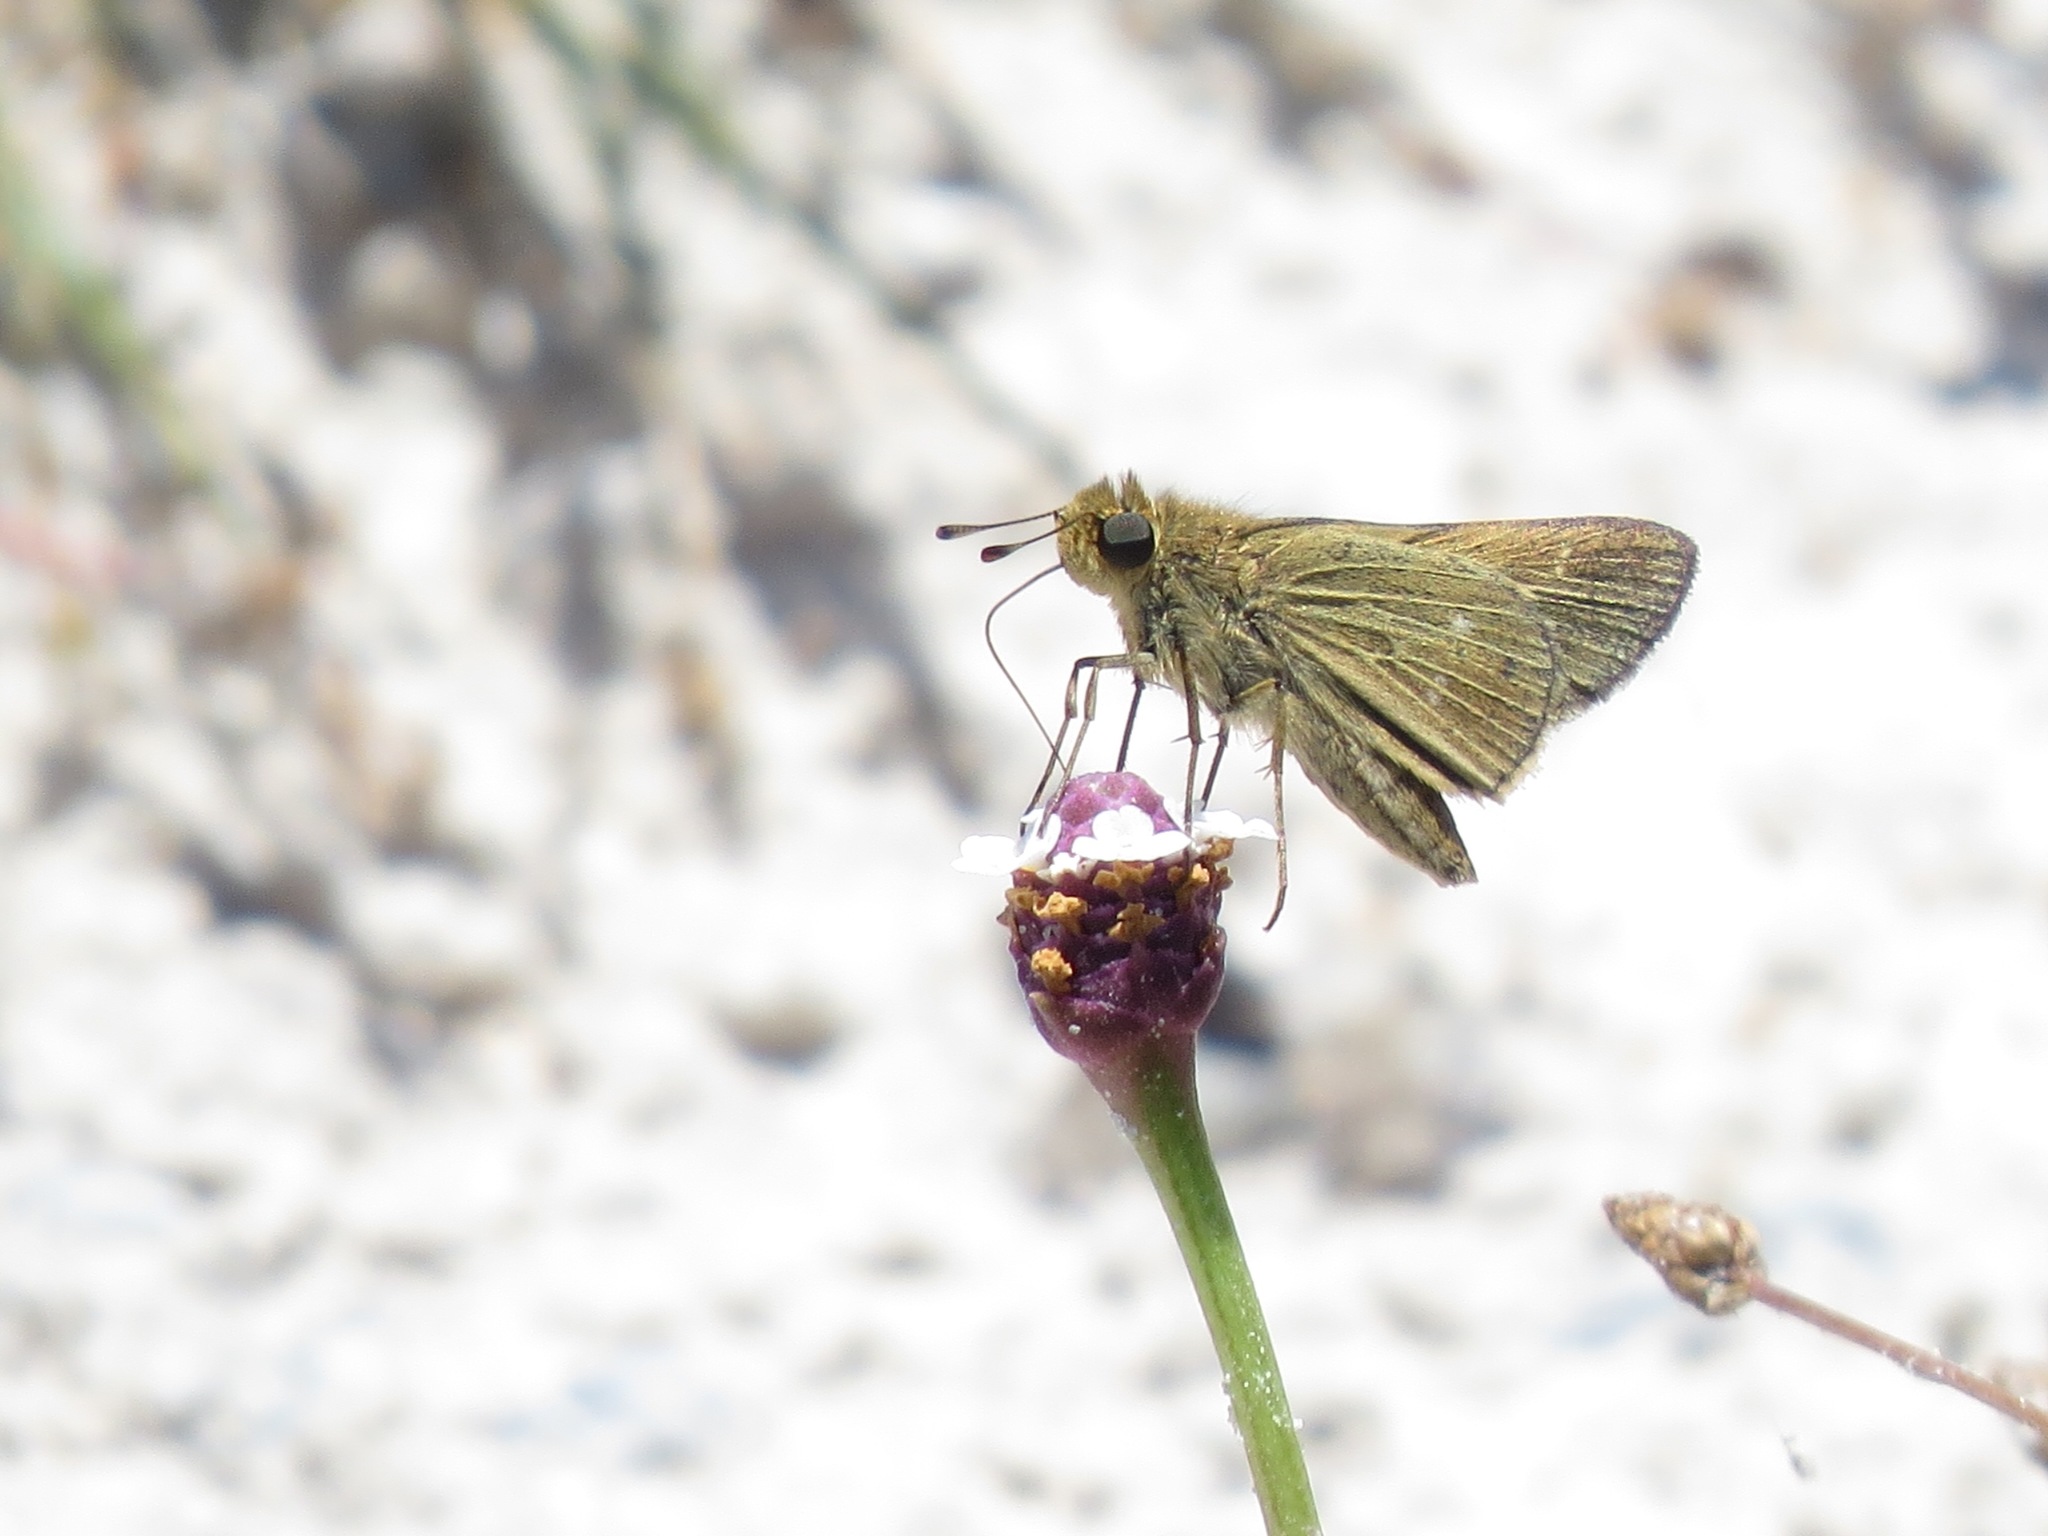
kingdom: Animalia
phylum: Arthropoda
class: Insecta
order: Lepidoptera
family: Hesperiidae
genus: Panoquina
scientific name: Panoquina panoquinoides
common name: Beach skipper
